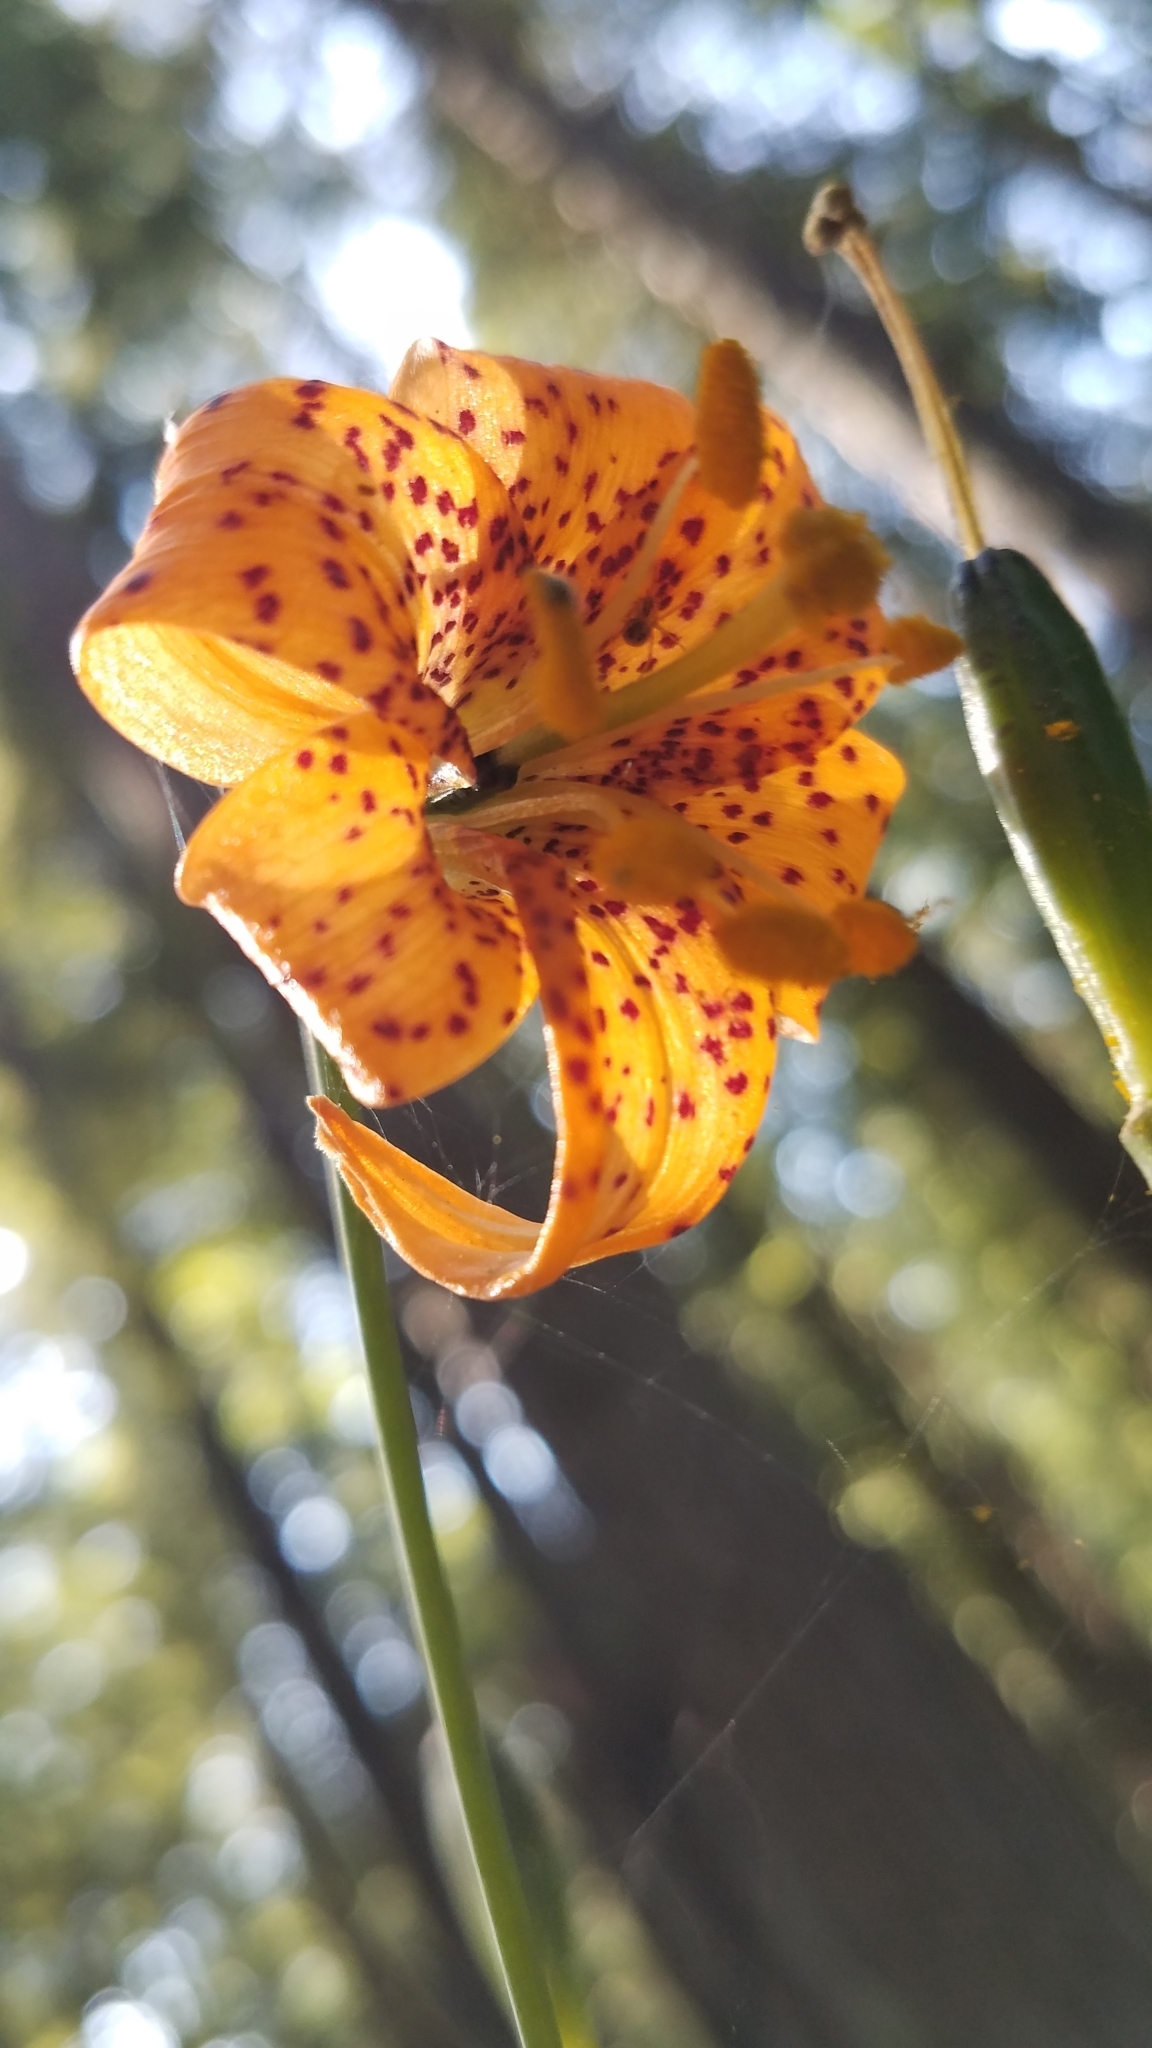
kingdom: Plantae
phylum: Tracheophyta
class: Liliopsida
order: Liliales
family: Liliaceae
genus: Lilium
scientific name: Lilium columbianum
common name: Columbia lily
